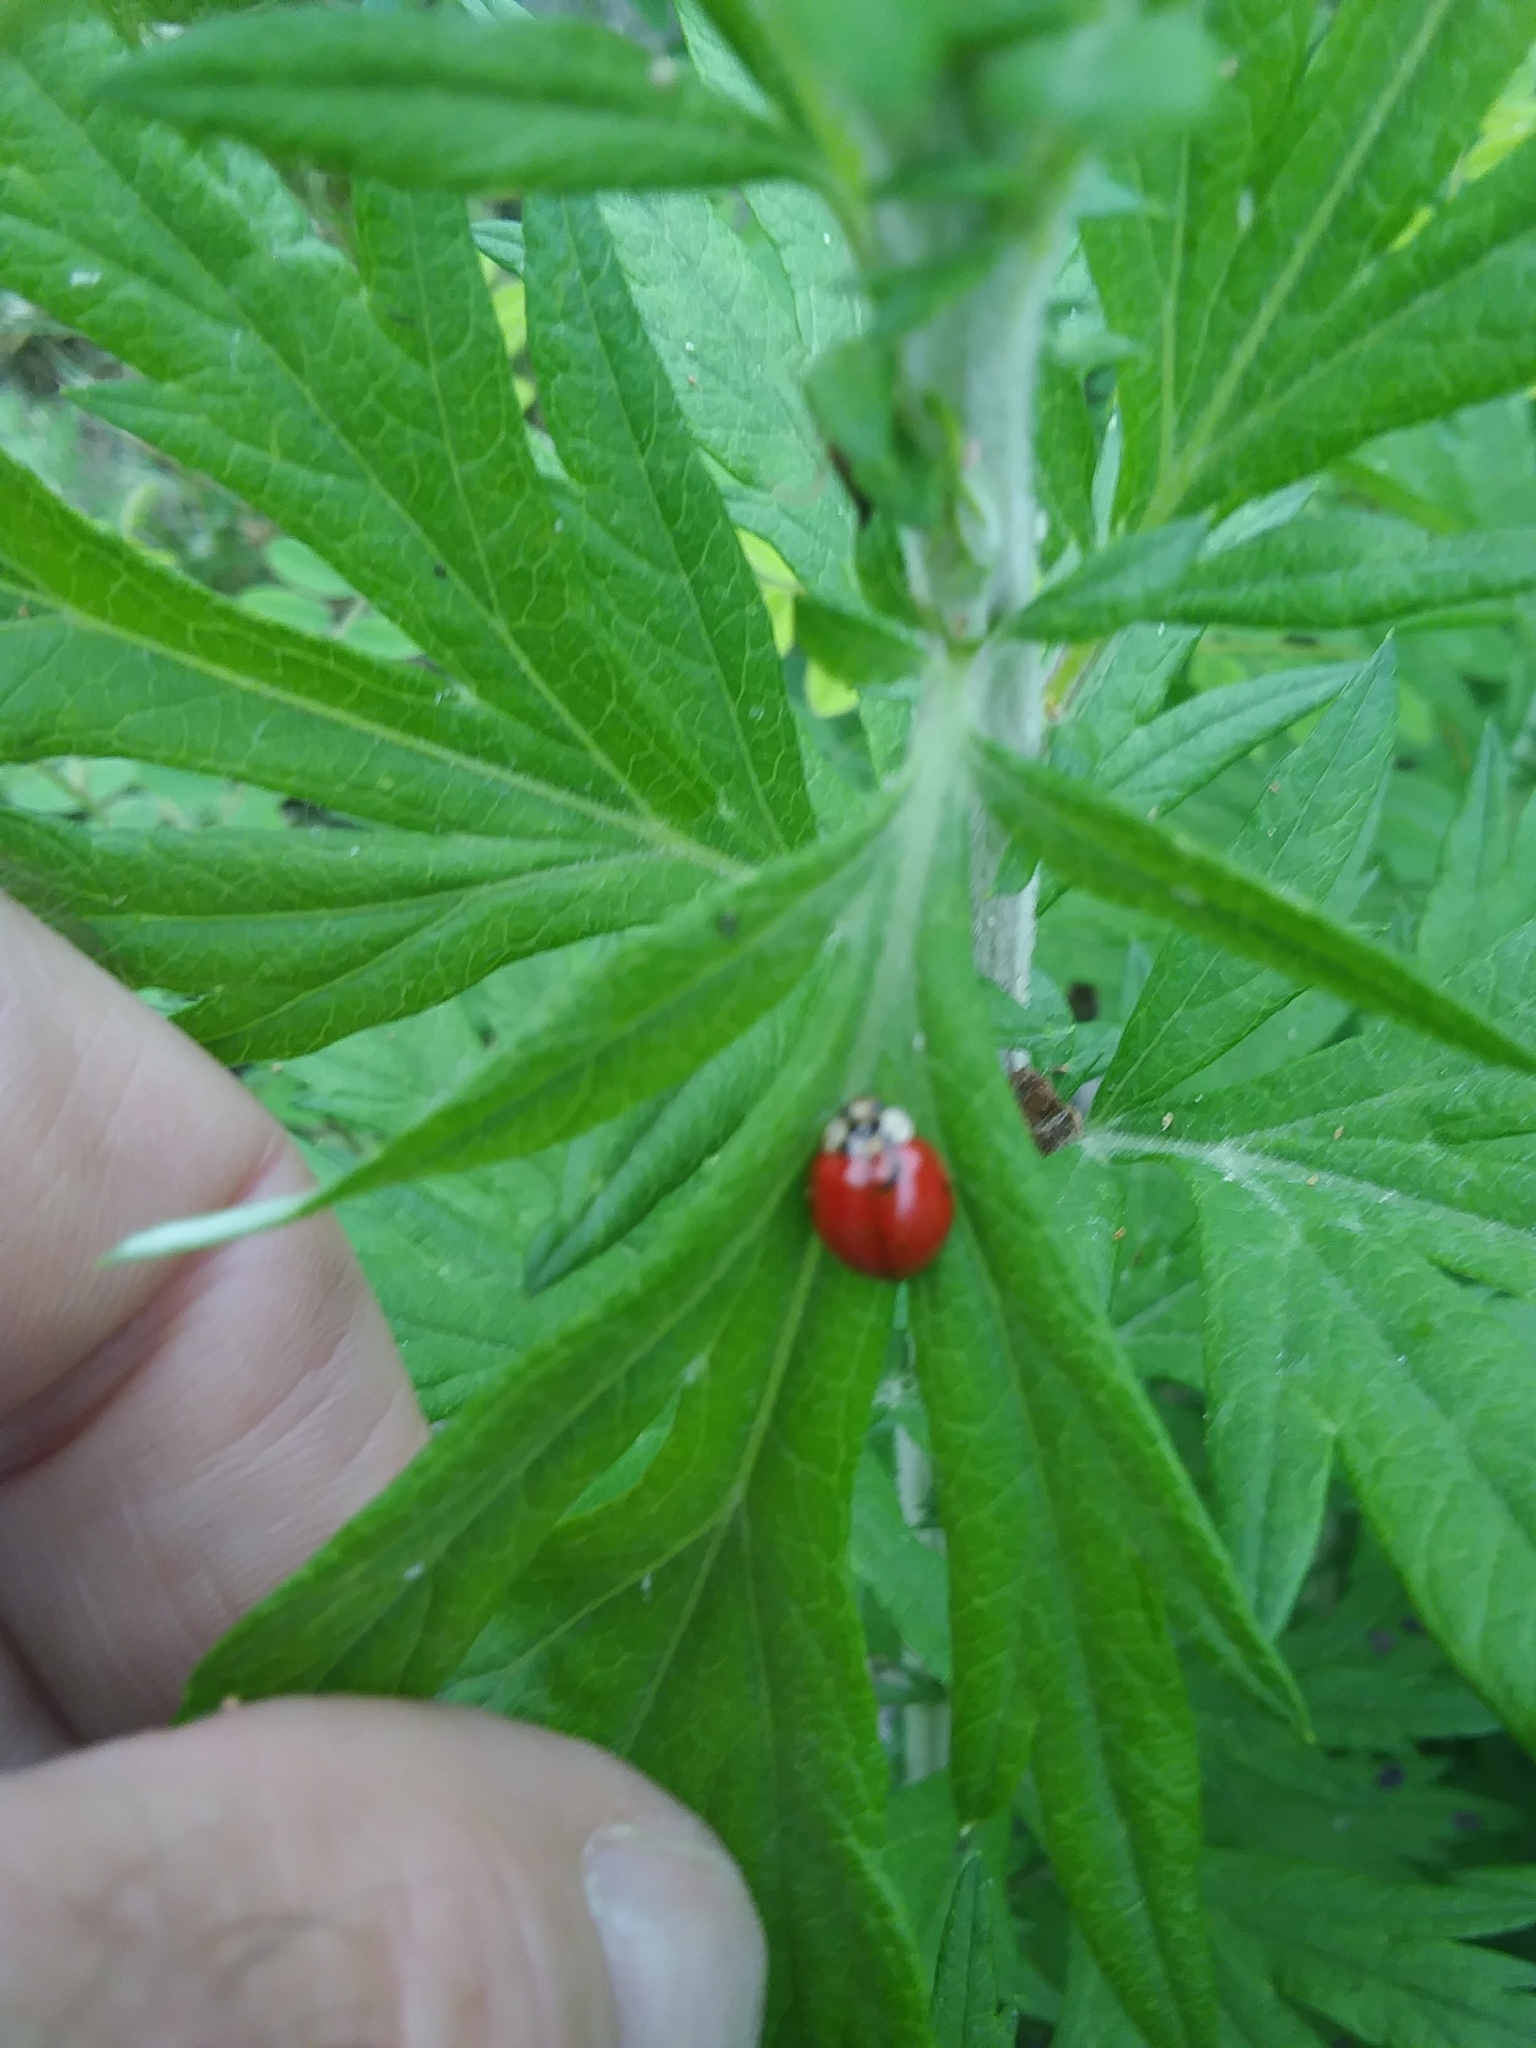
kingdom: Animalia
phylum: Arthropoda
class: Insecta
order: Coleoptera
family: Coccinellidae
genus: Harmonia
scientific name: Harmonia axyridis
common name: Harlequin ladybird
